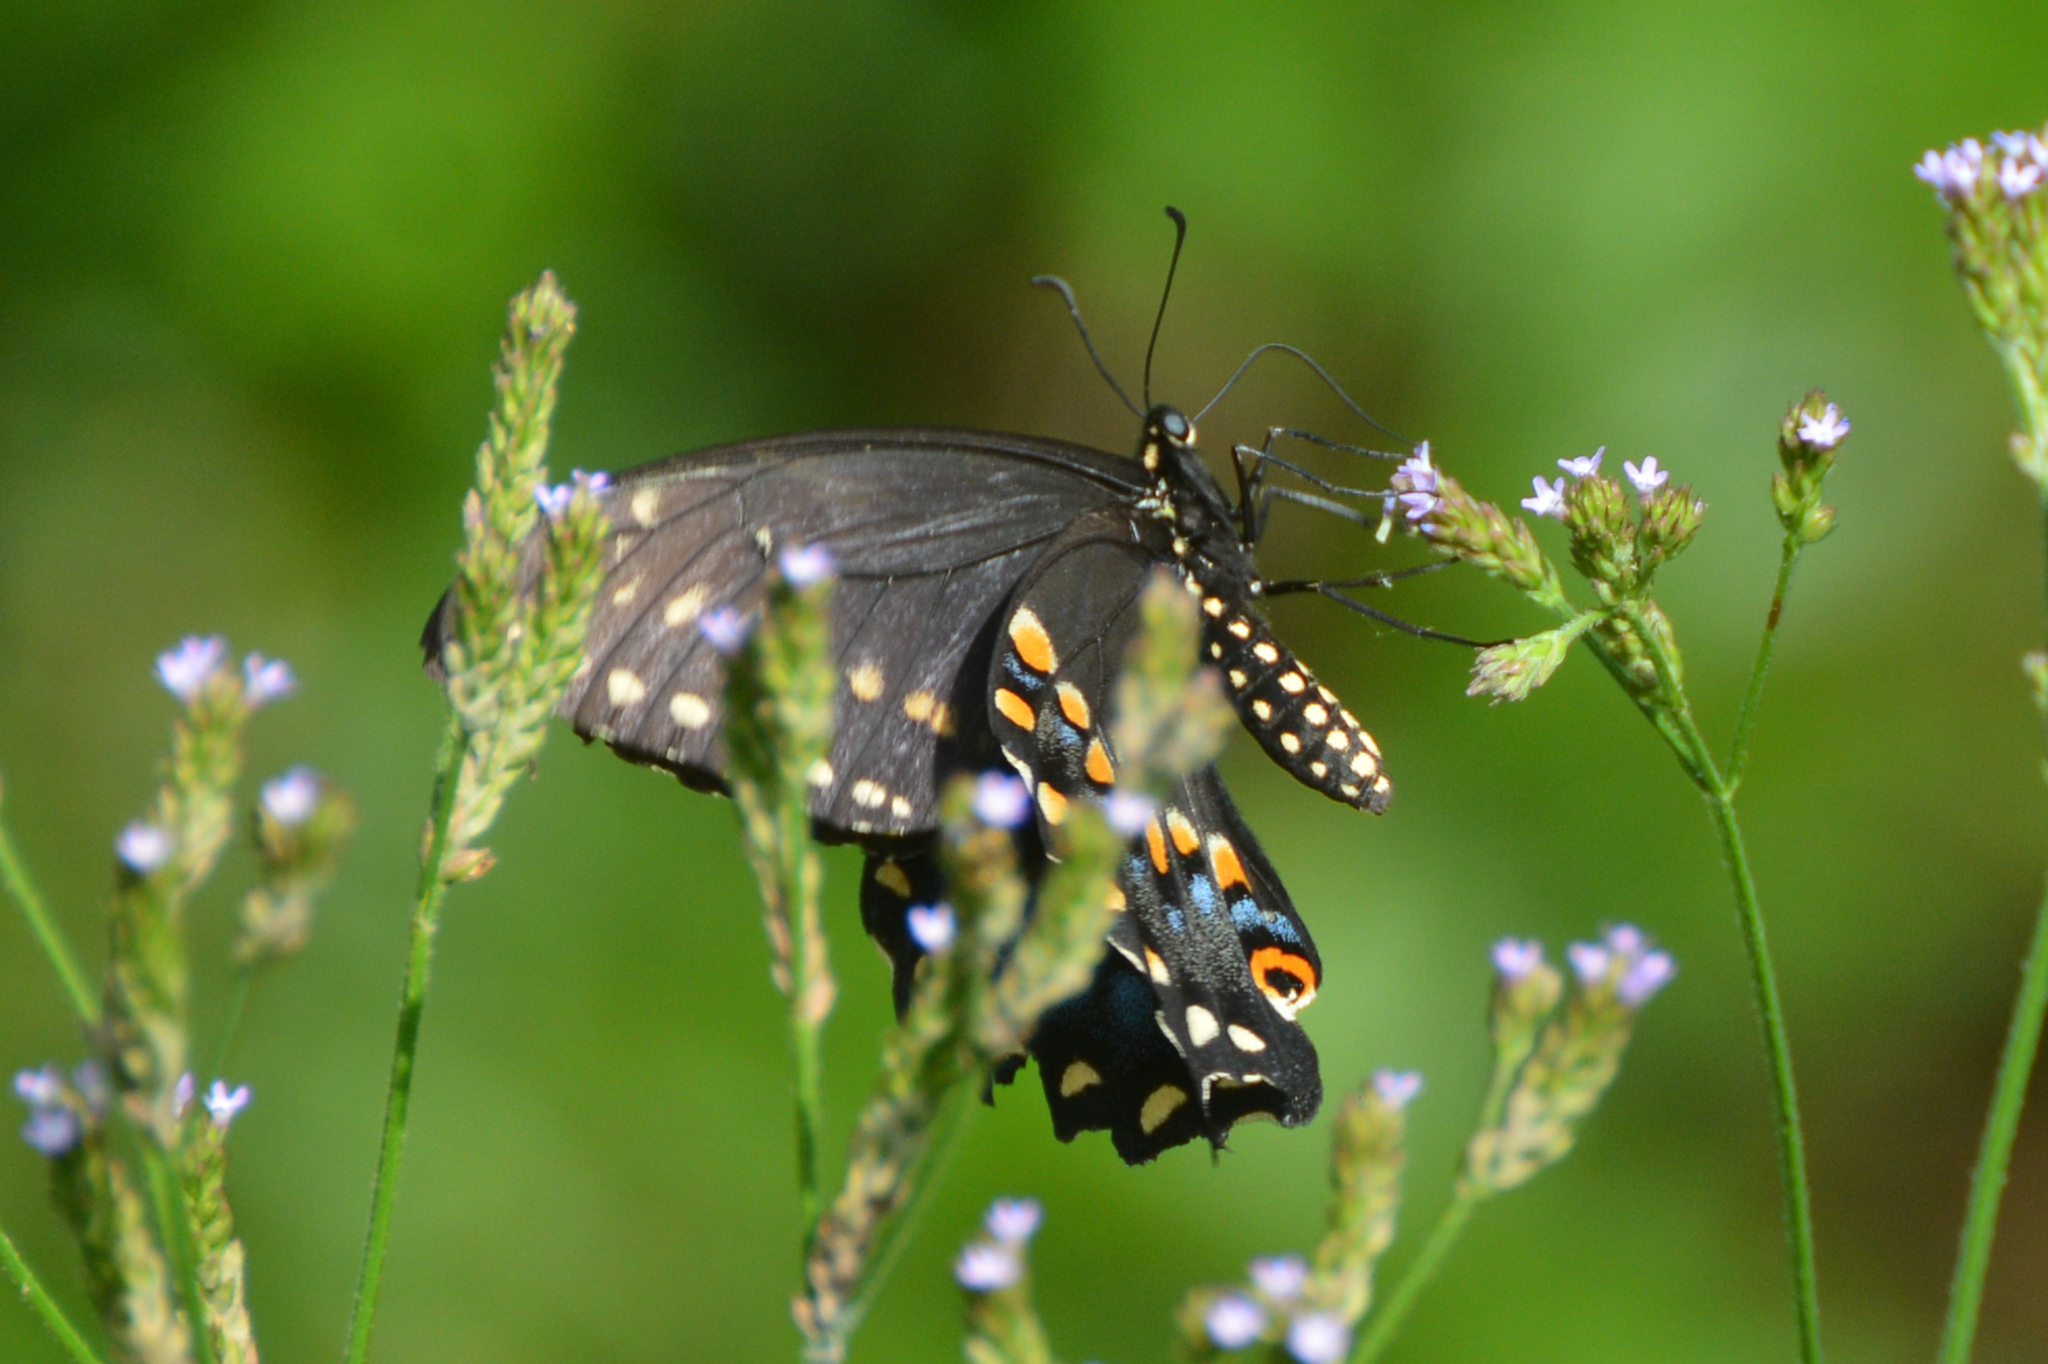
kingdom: Animalia
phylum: Arthropoda
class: Insecta
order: Lepidoptera
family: Papilionidae
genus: Papilio
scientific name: Papilio polyxenes
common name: Black swallowtail
